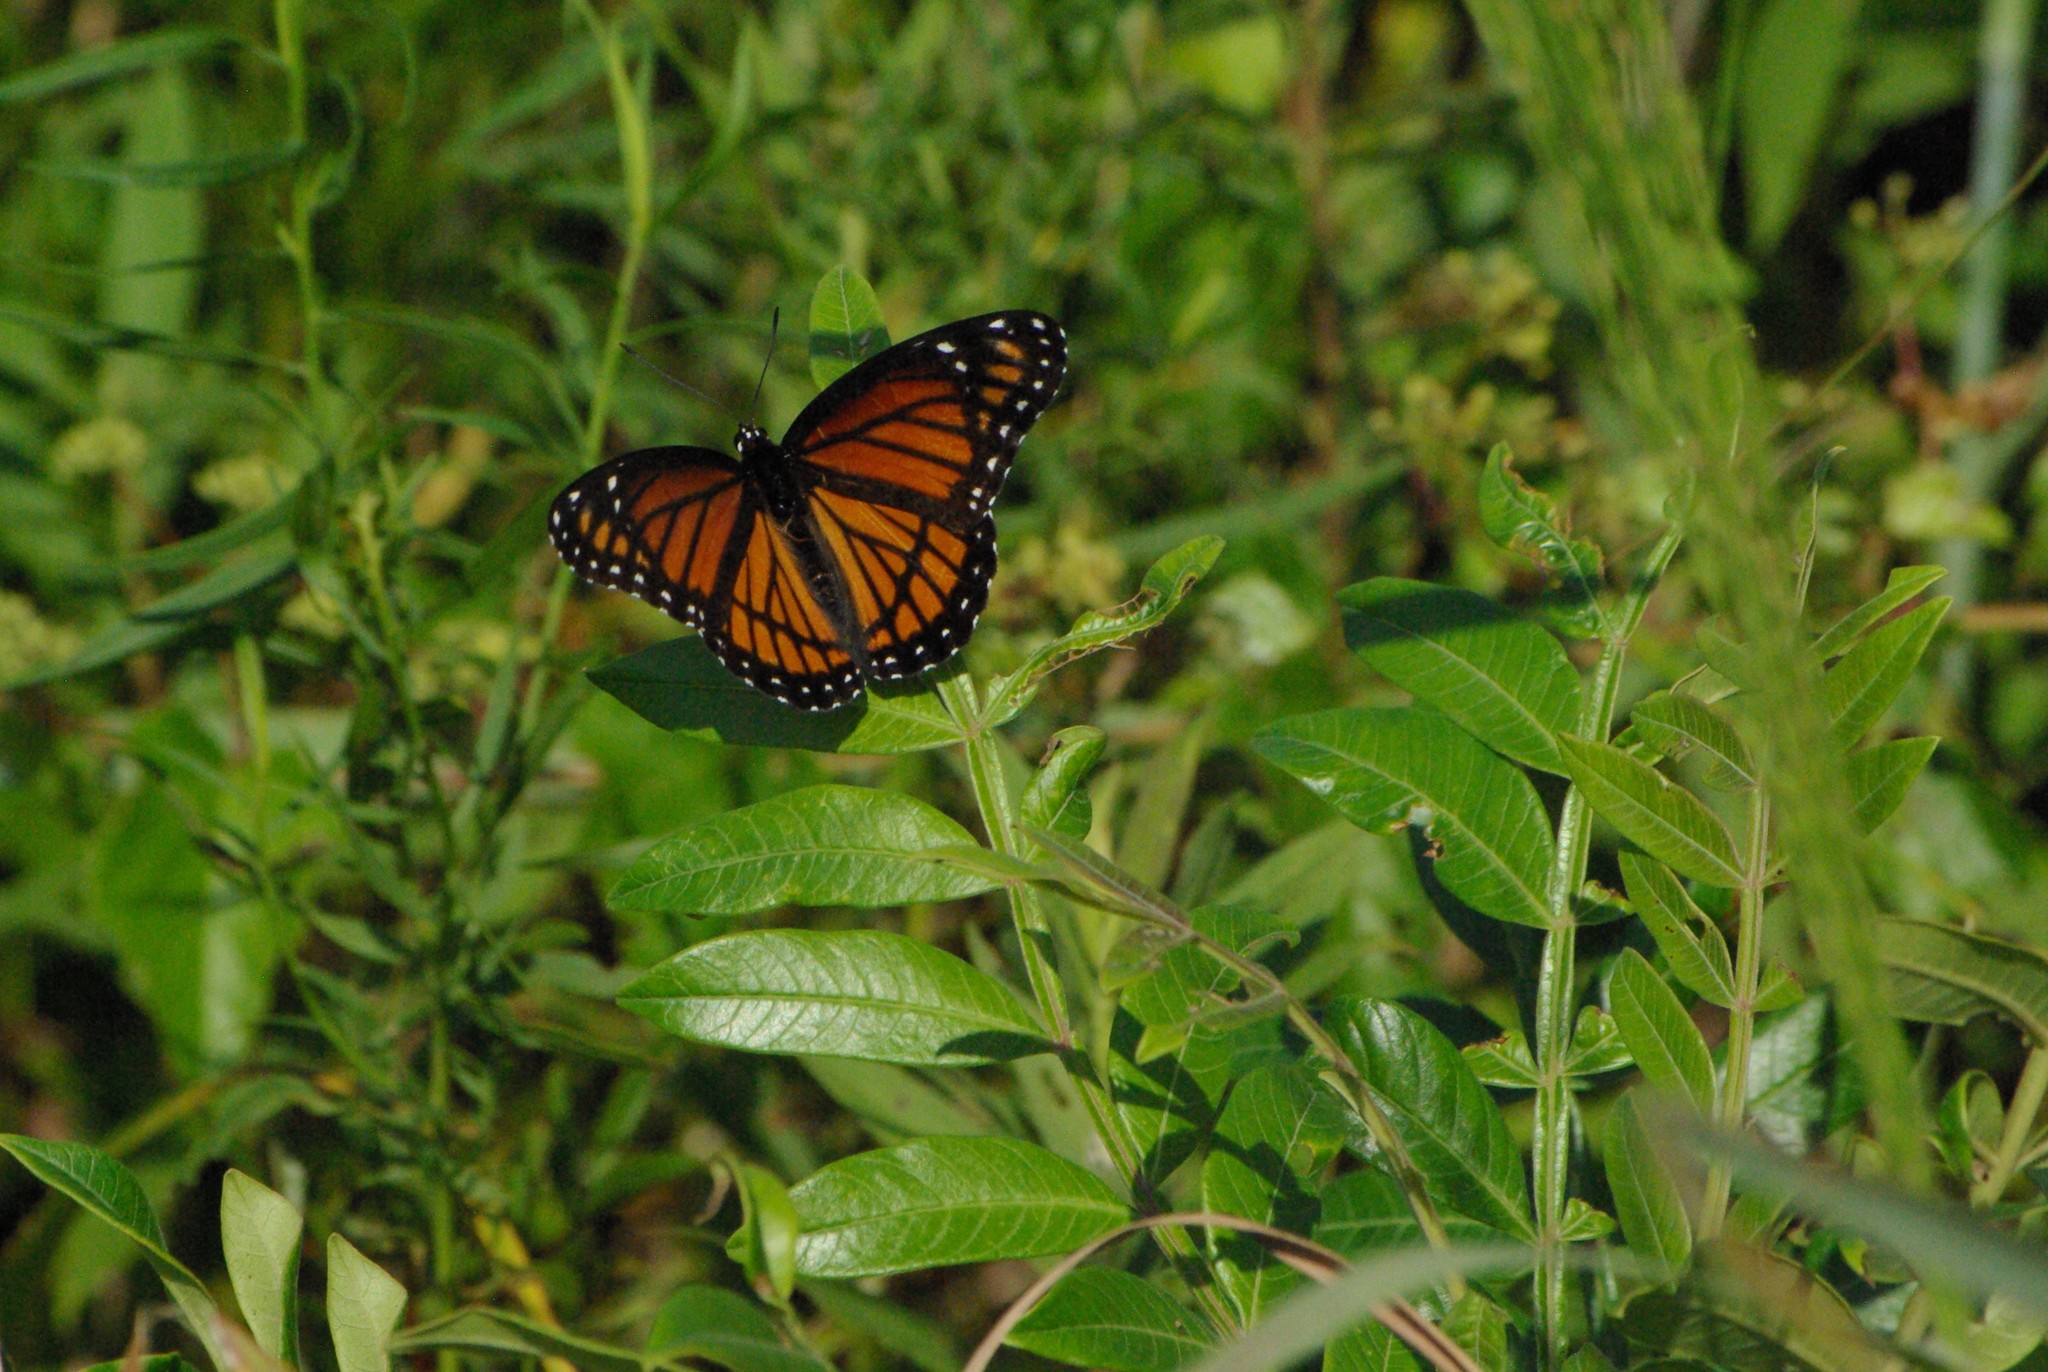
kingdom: Animalia
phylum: Arthropoda
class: Insecta
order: Lepidoptera
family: Nymphalidae
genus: Limenitis
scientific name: Limenitis archippus
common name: Viceroy
